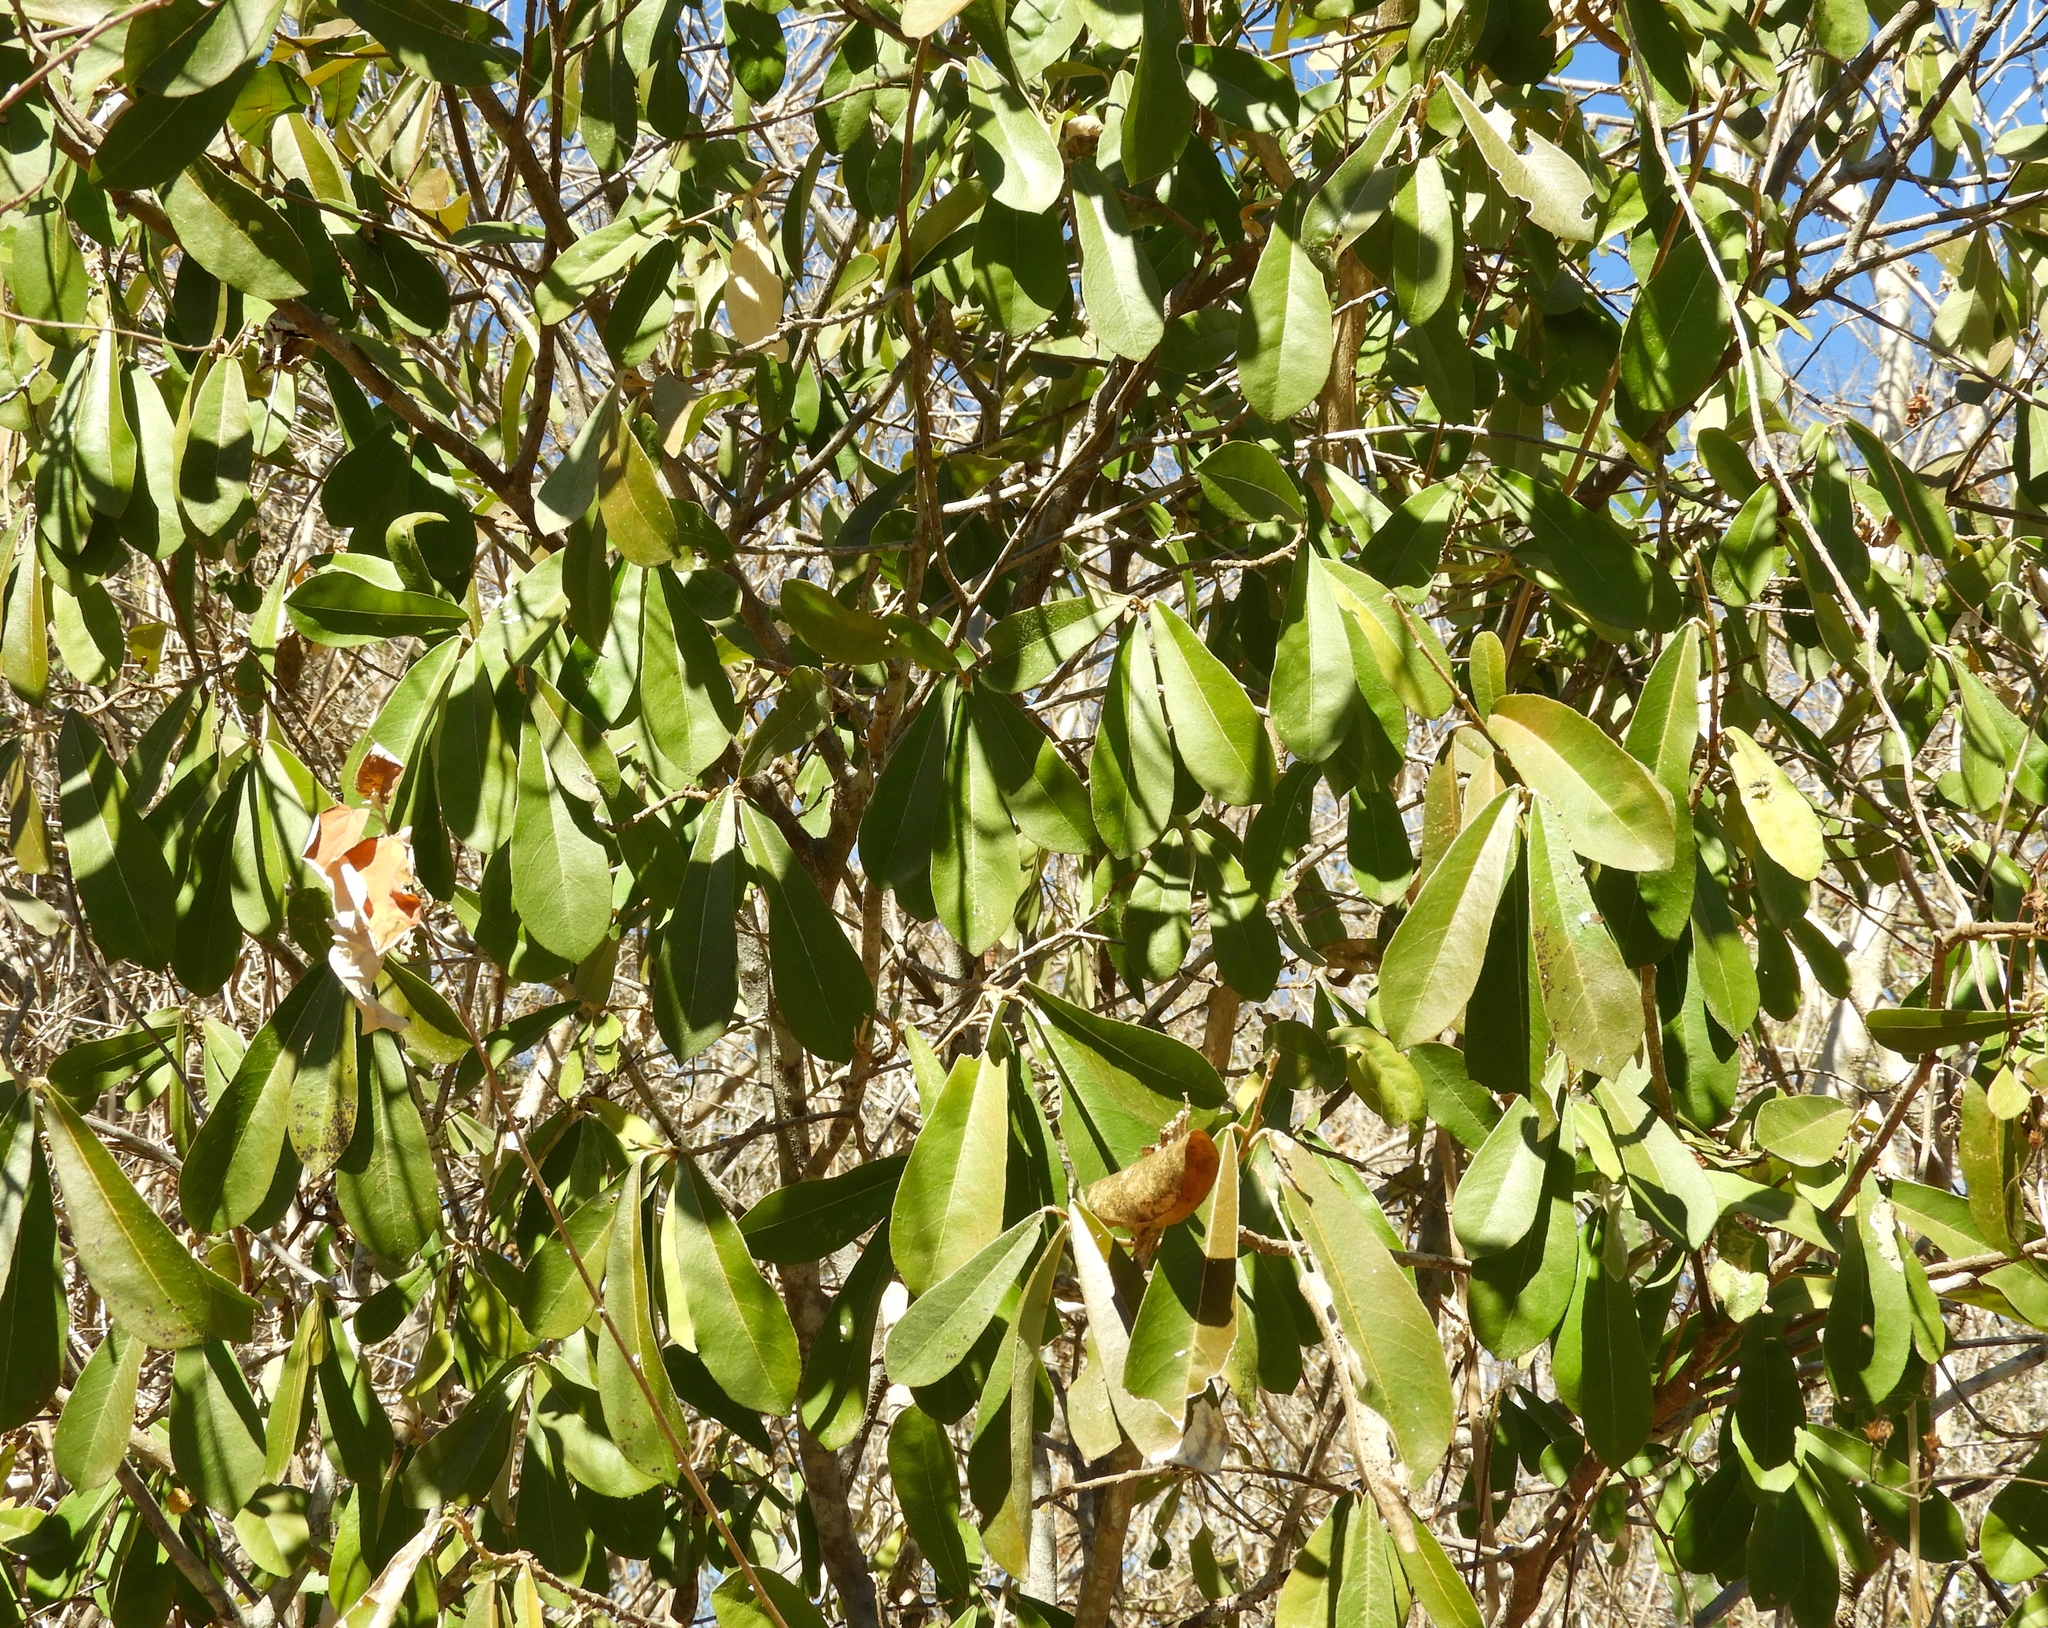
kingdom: Plantae
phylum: Tracheophyta
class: Magnoliopsida
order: Brassicales
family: Capparaceae
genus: Quadrella
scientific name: Quadrella indica
